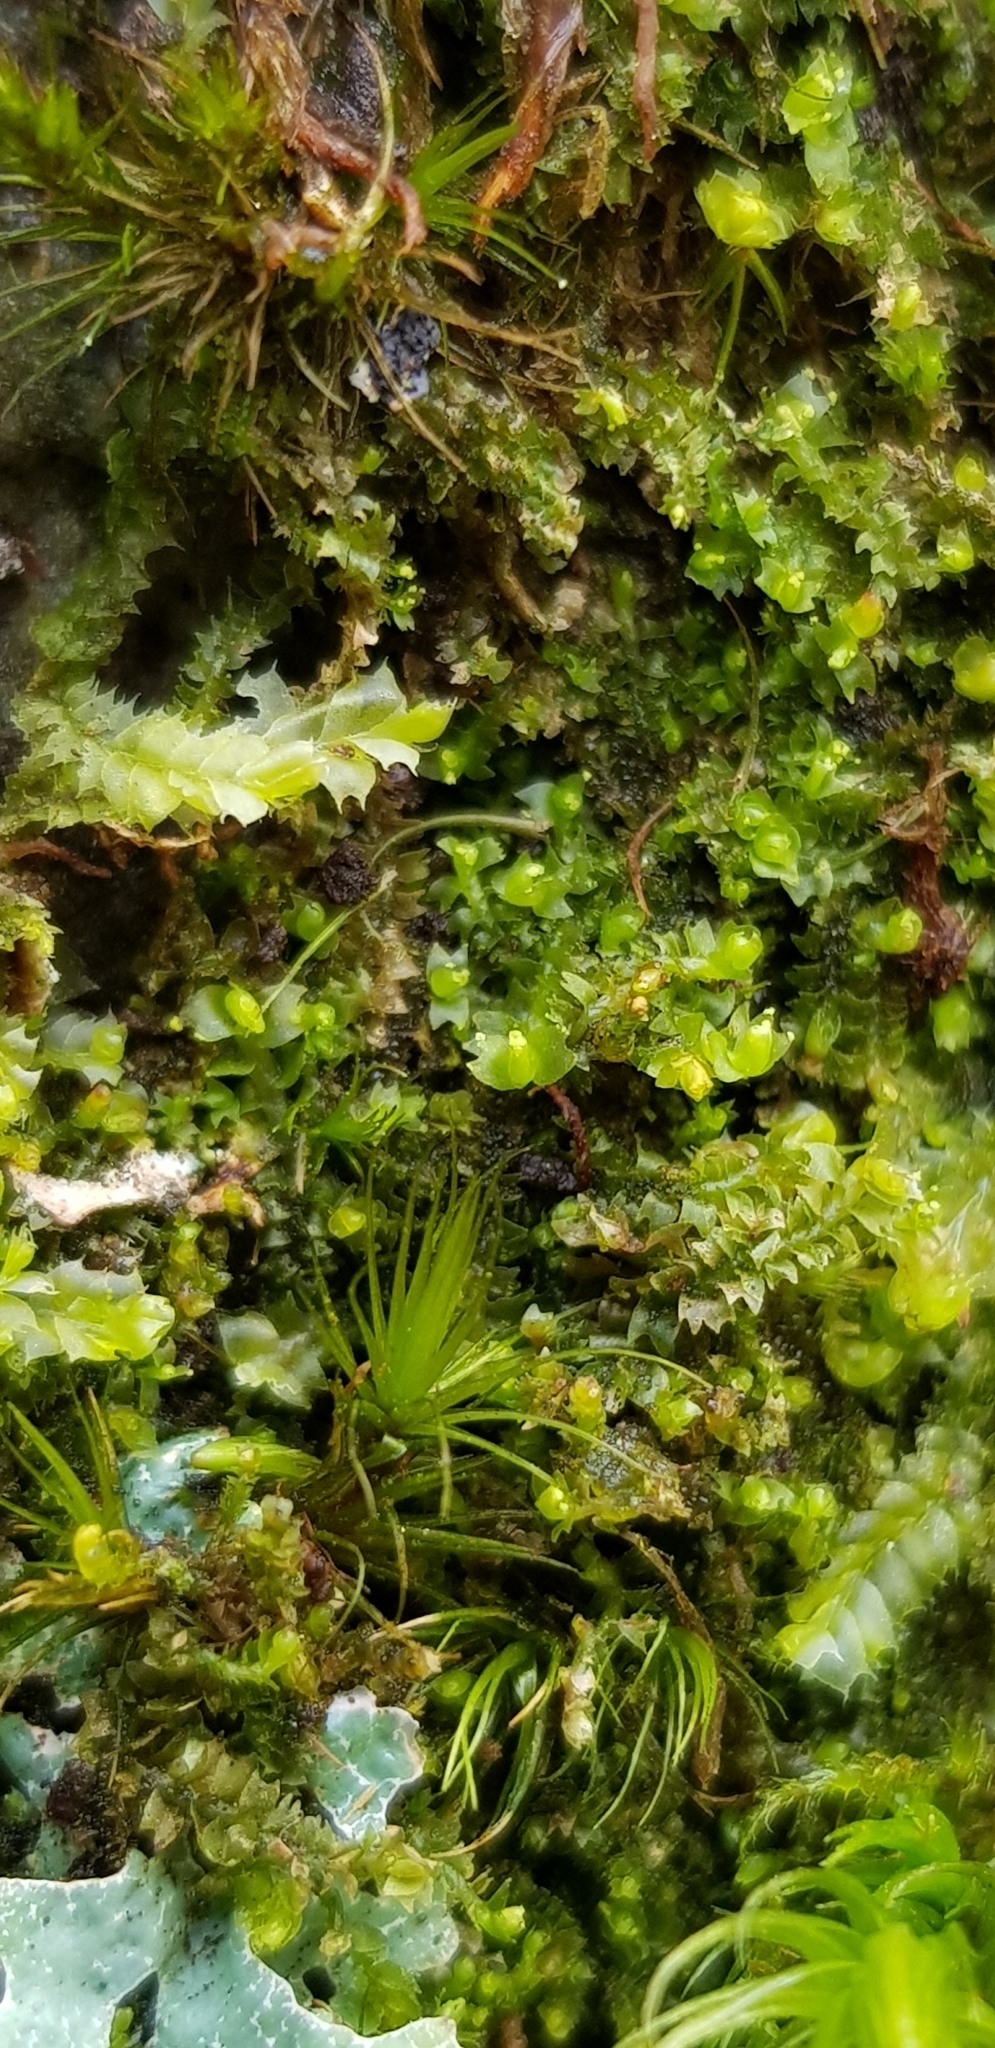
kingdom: Plantae
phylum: Marchantiophyta
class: Jungermanniopsida
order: Jungermanniales
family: Lophoziaceae
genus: Lophozia
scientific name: Lophozia ventricosa
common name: Tumid notchwort
